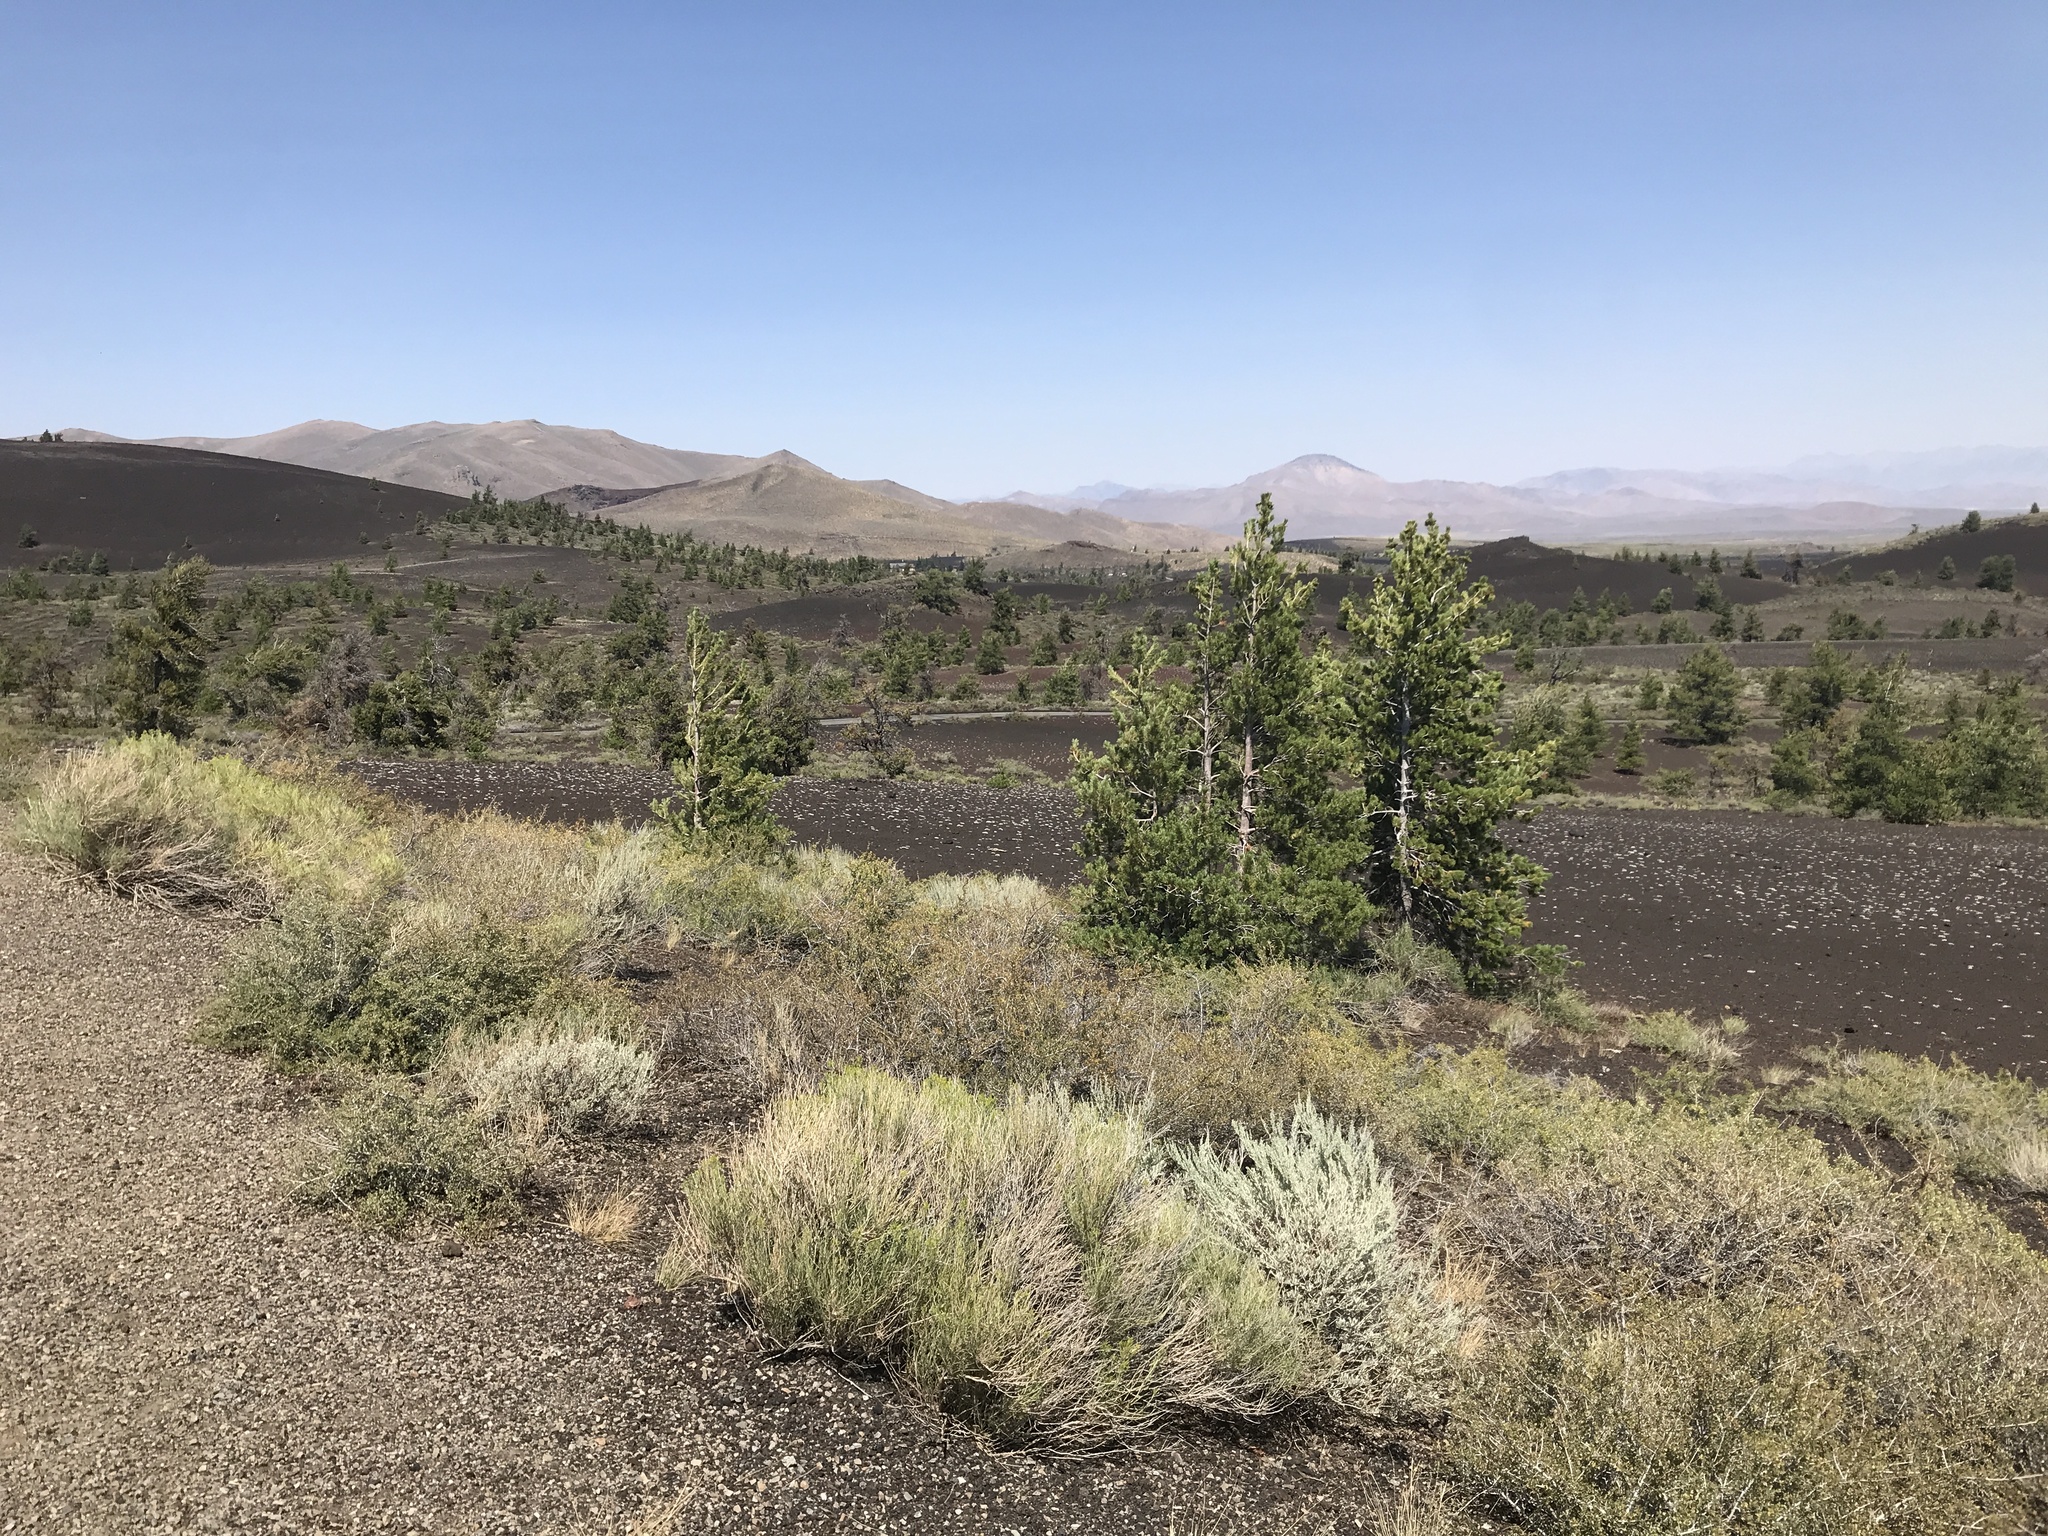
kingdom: Plantae
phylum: Tracheophyta
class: Pinopsida
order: Pinales
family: Pinaceae
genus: Pinus
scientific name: Pinus flexilis
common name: Limber pine
